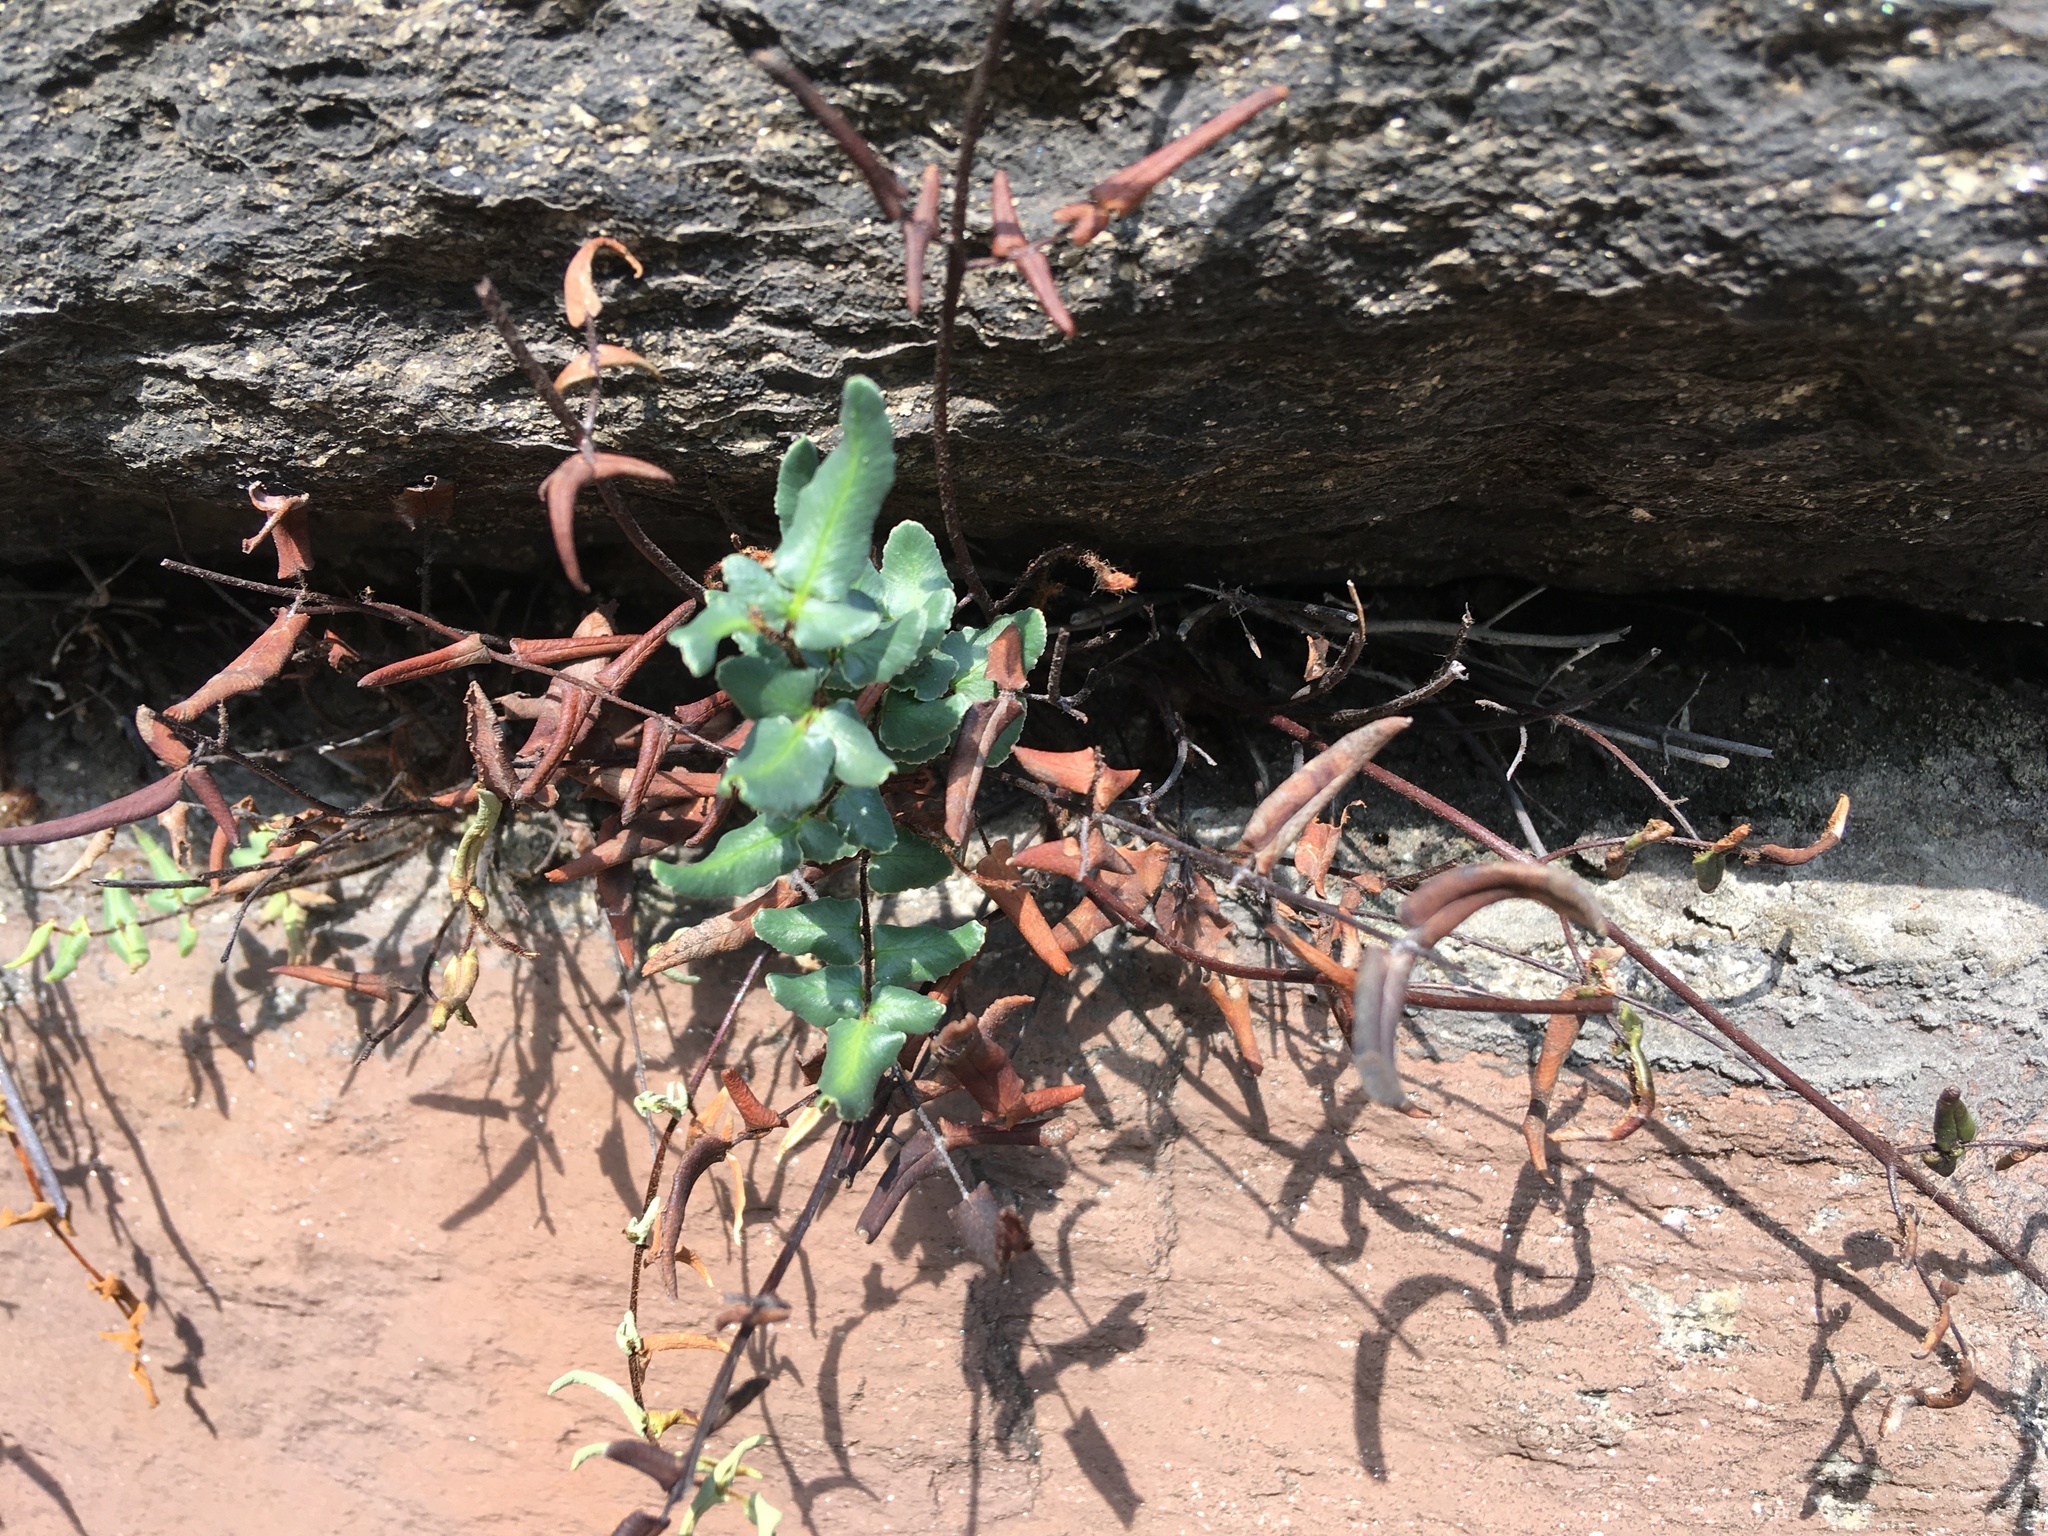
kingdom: Plantae
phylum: Tracheophyta
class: Polypodiopsida
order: Polypodiales
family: Pteridaceae
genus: Pellaea
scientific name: Pellaea atropurpurea
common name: Hairy cliffbrake
